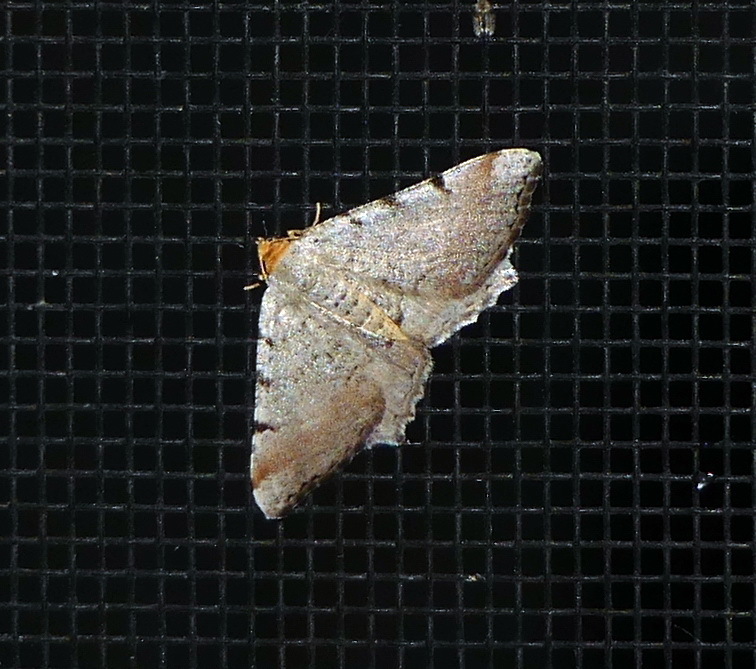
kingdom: Animalia
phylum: Arthropoda
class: Insecta
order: Lepidoptera
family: Geometridae
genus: Macaria
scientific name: Macaria minorata
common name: Minor angle moth
